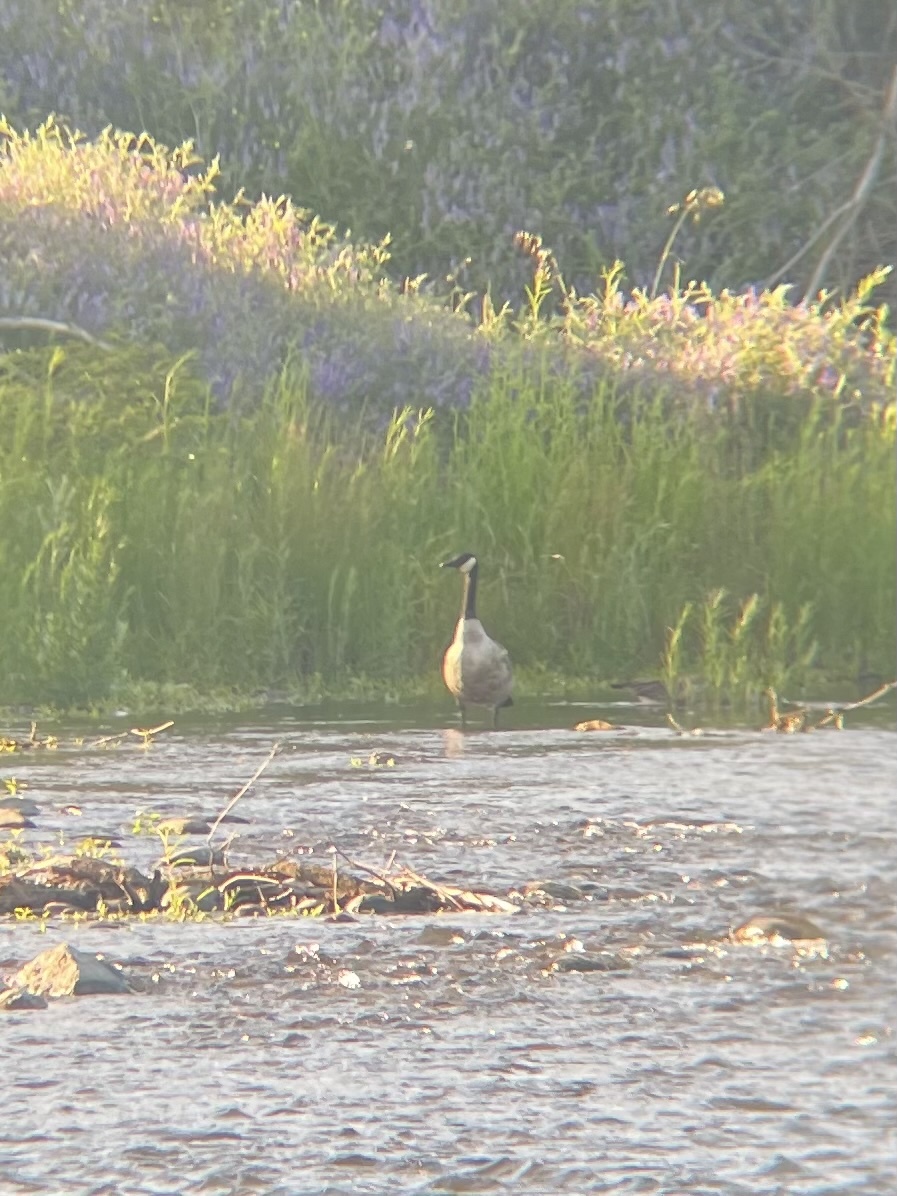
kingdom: Animalia
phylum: Chordata
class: Aves
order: Anseriformes
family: Anatidae
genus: Branta
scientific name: Branta canadensis
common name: Canada goose
